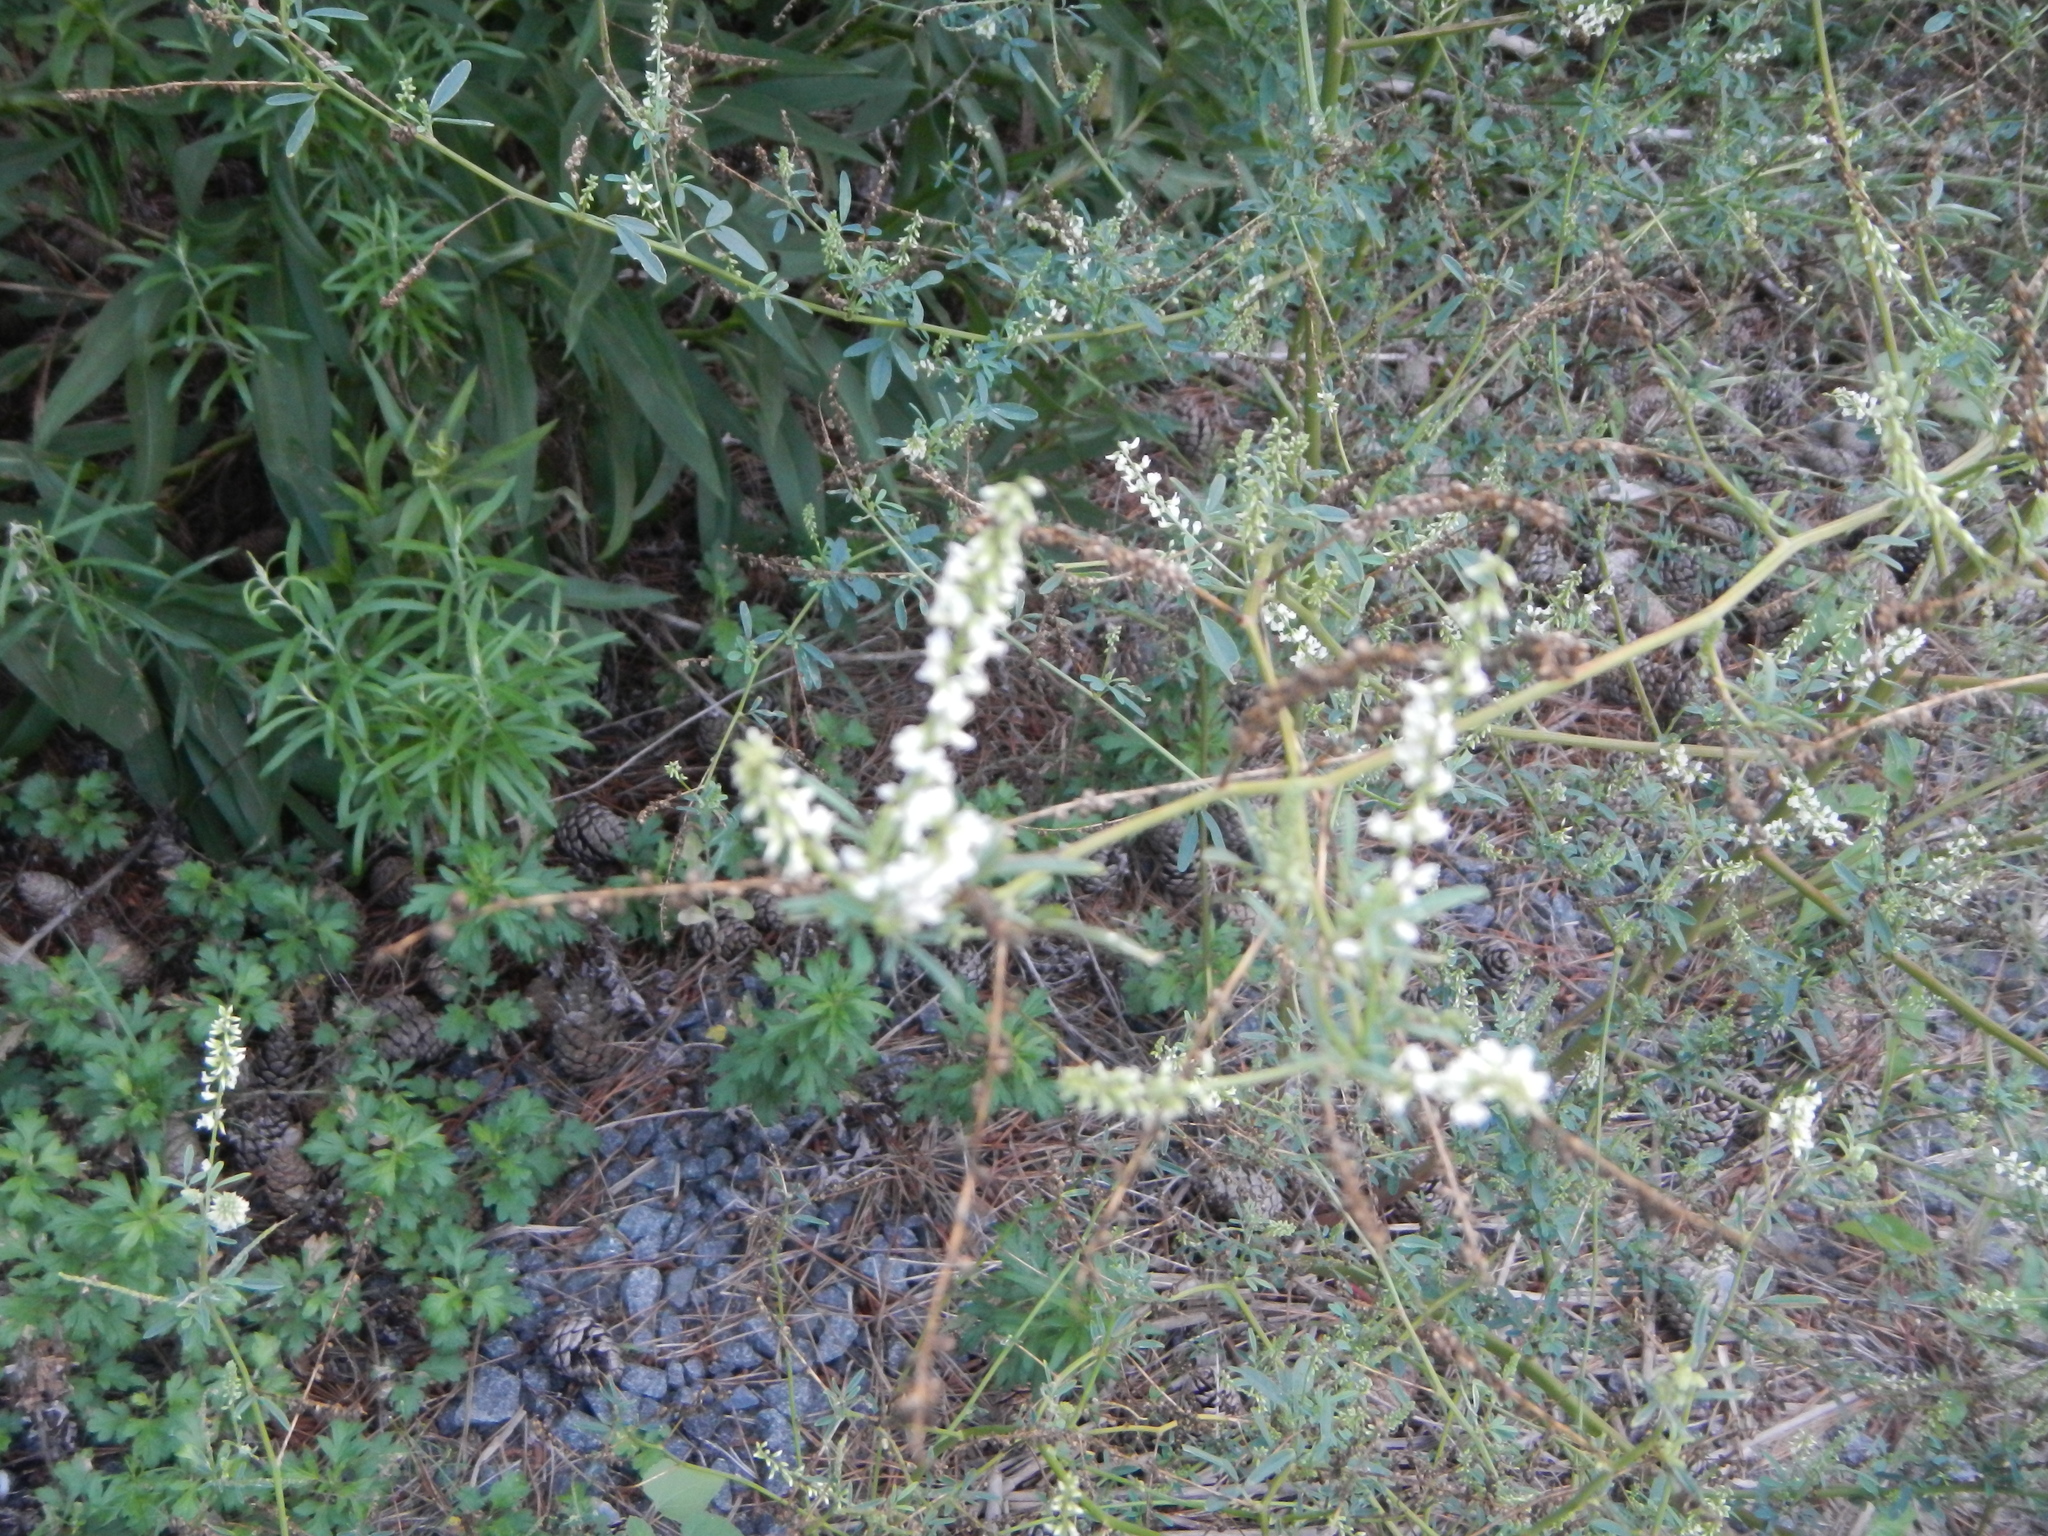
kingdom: Plantae
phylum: Tracheophyta
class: Magnoliopsida
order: Fabales
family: Fabaceae
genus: Melilotus
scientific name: Melilotus albus
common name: White melilot
